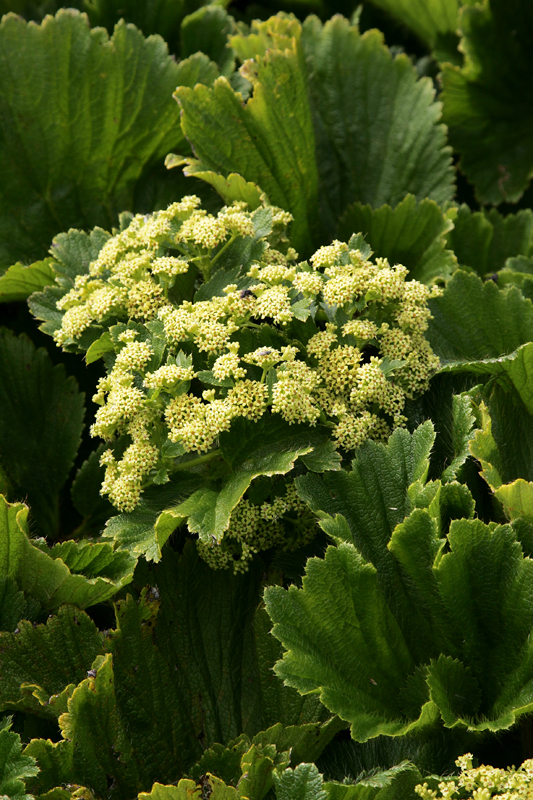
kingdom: Plantae
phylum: Tracheophyta
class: Magnoliopsida
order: Apiales
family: Apiaceae
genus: Azorella
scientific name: Azorella polaris
